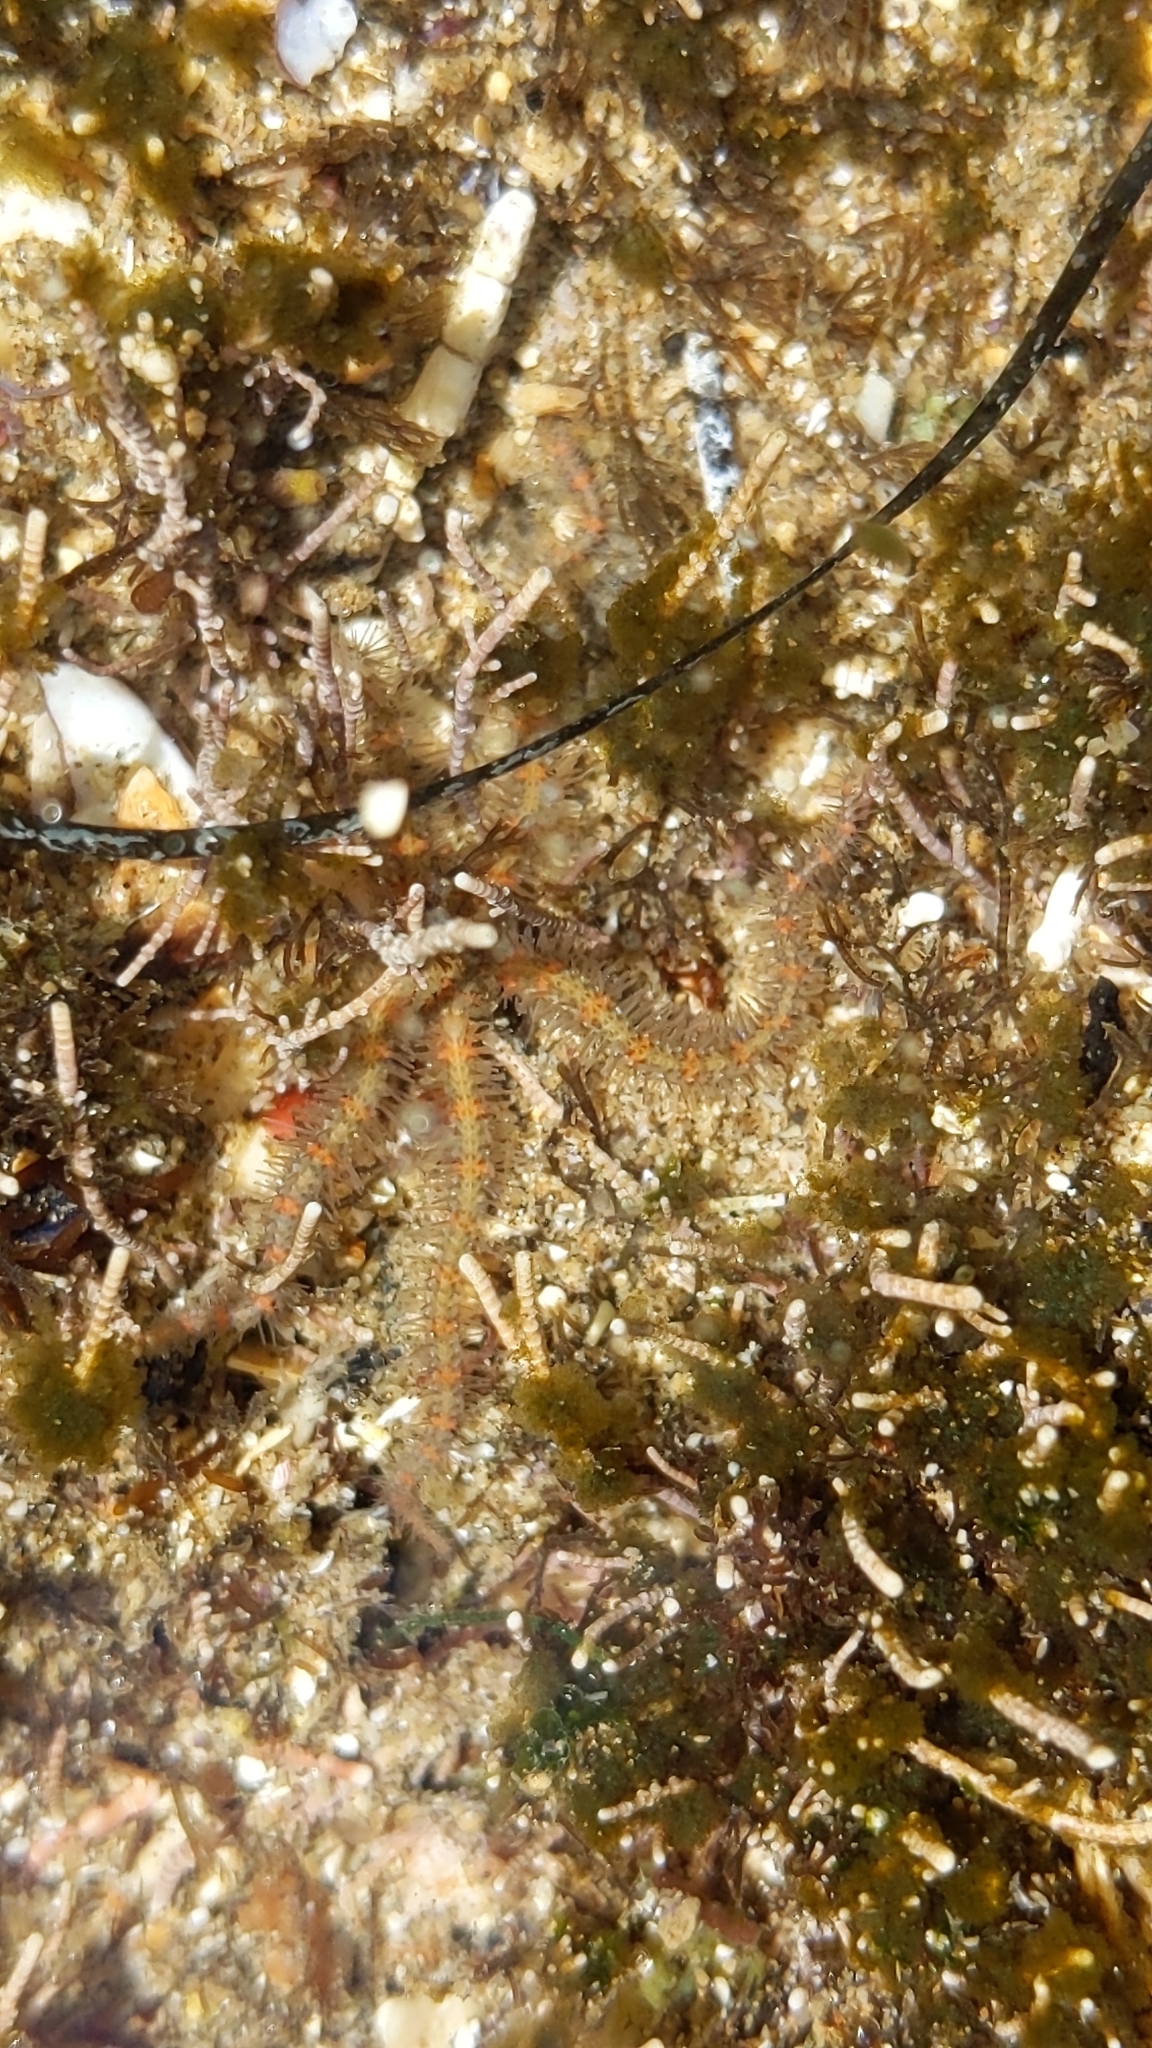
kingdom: Animalia
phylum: Echinodermata
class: Ophiuroidea
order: Amphilepidida
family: Ophiotrichidae
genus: Ophiothrix
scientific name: Ophiothrix spiculata
